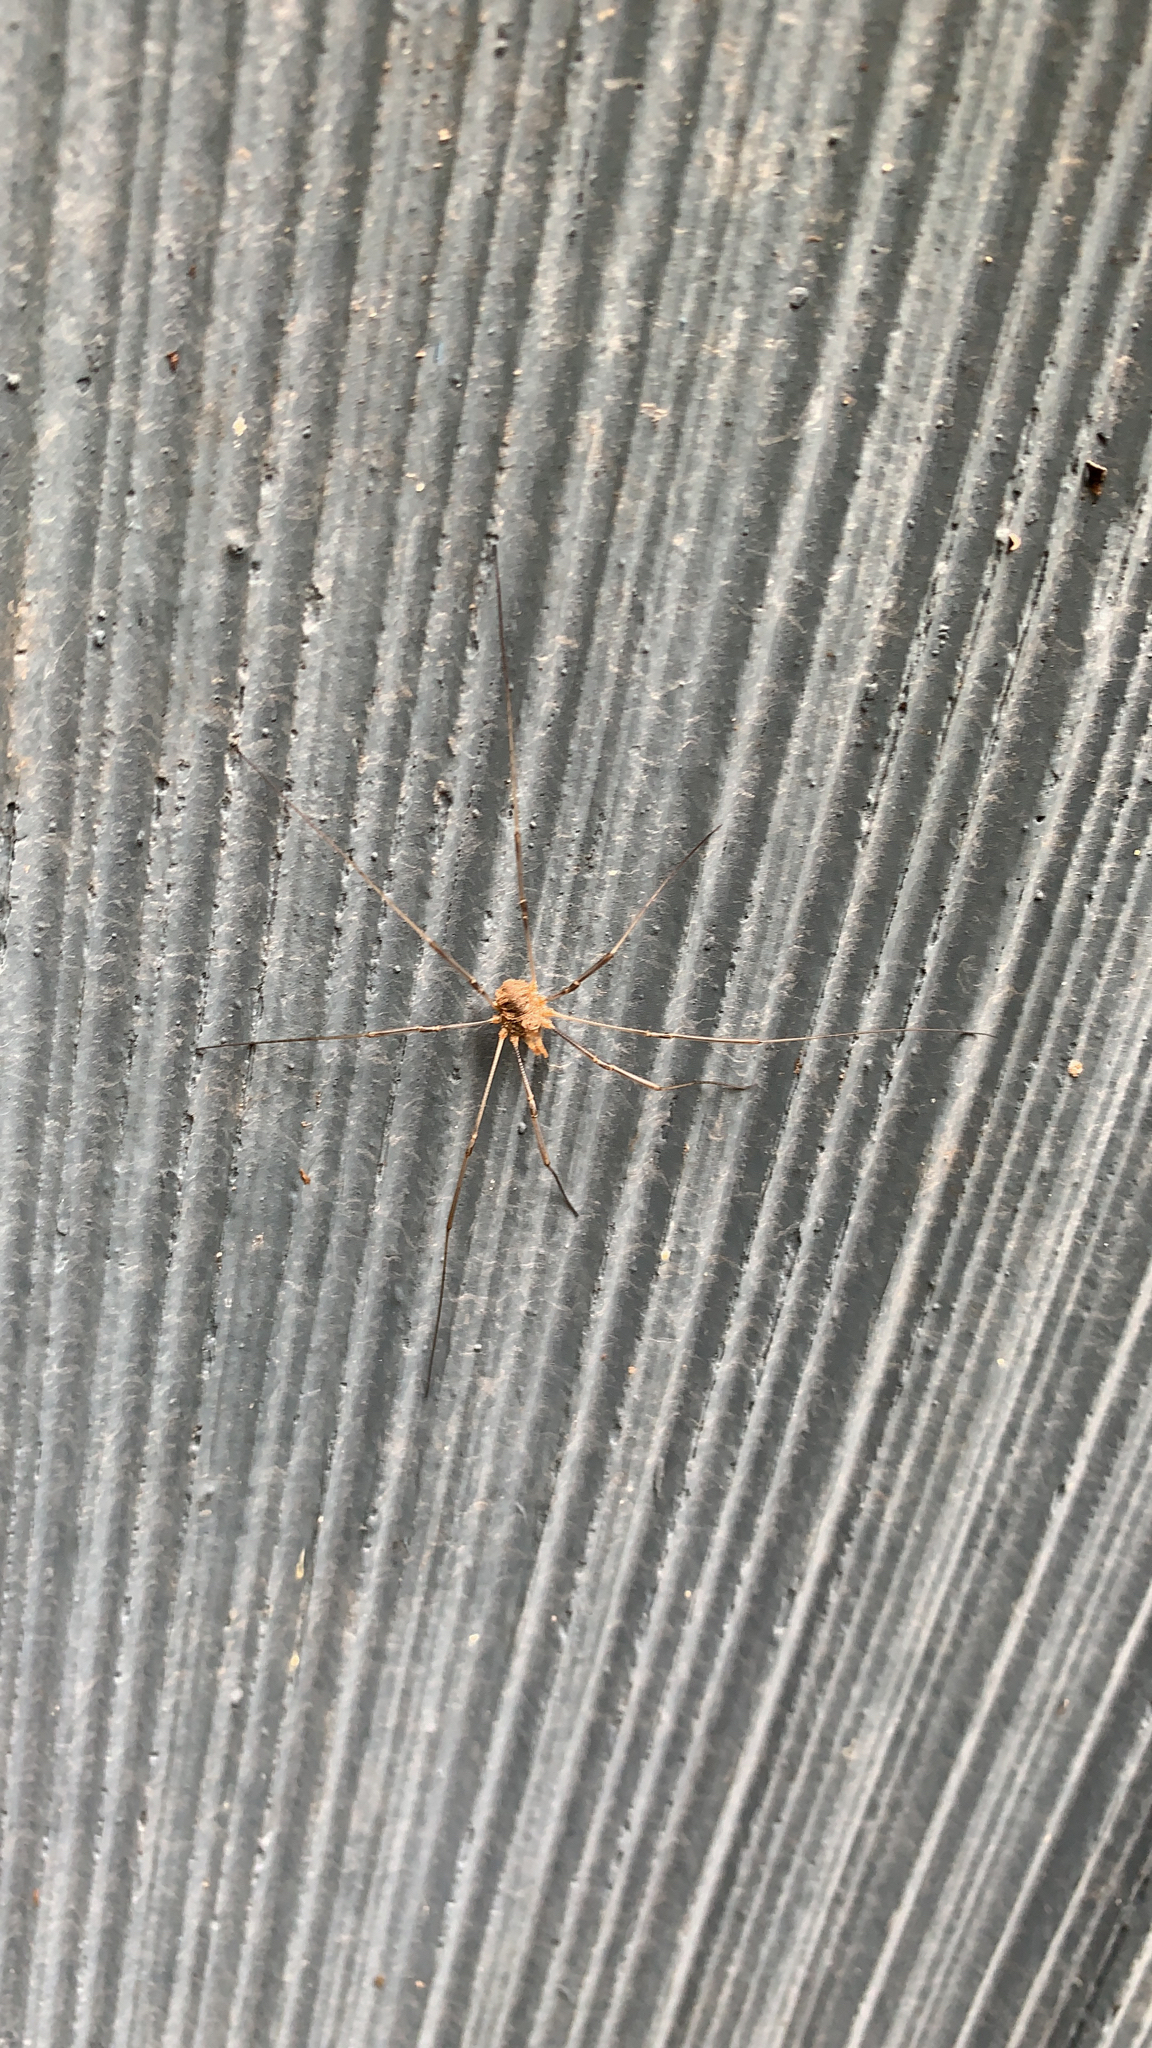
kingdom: Animalia
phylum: Arthropoda
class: Arachnida
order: Opiliones
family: Phalangiidae
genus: Phalangium
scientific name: Phalangium opilio
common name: Daddy longleg
